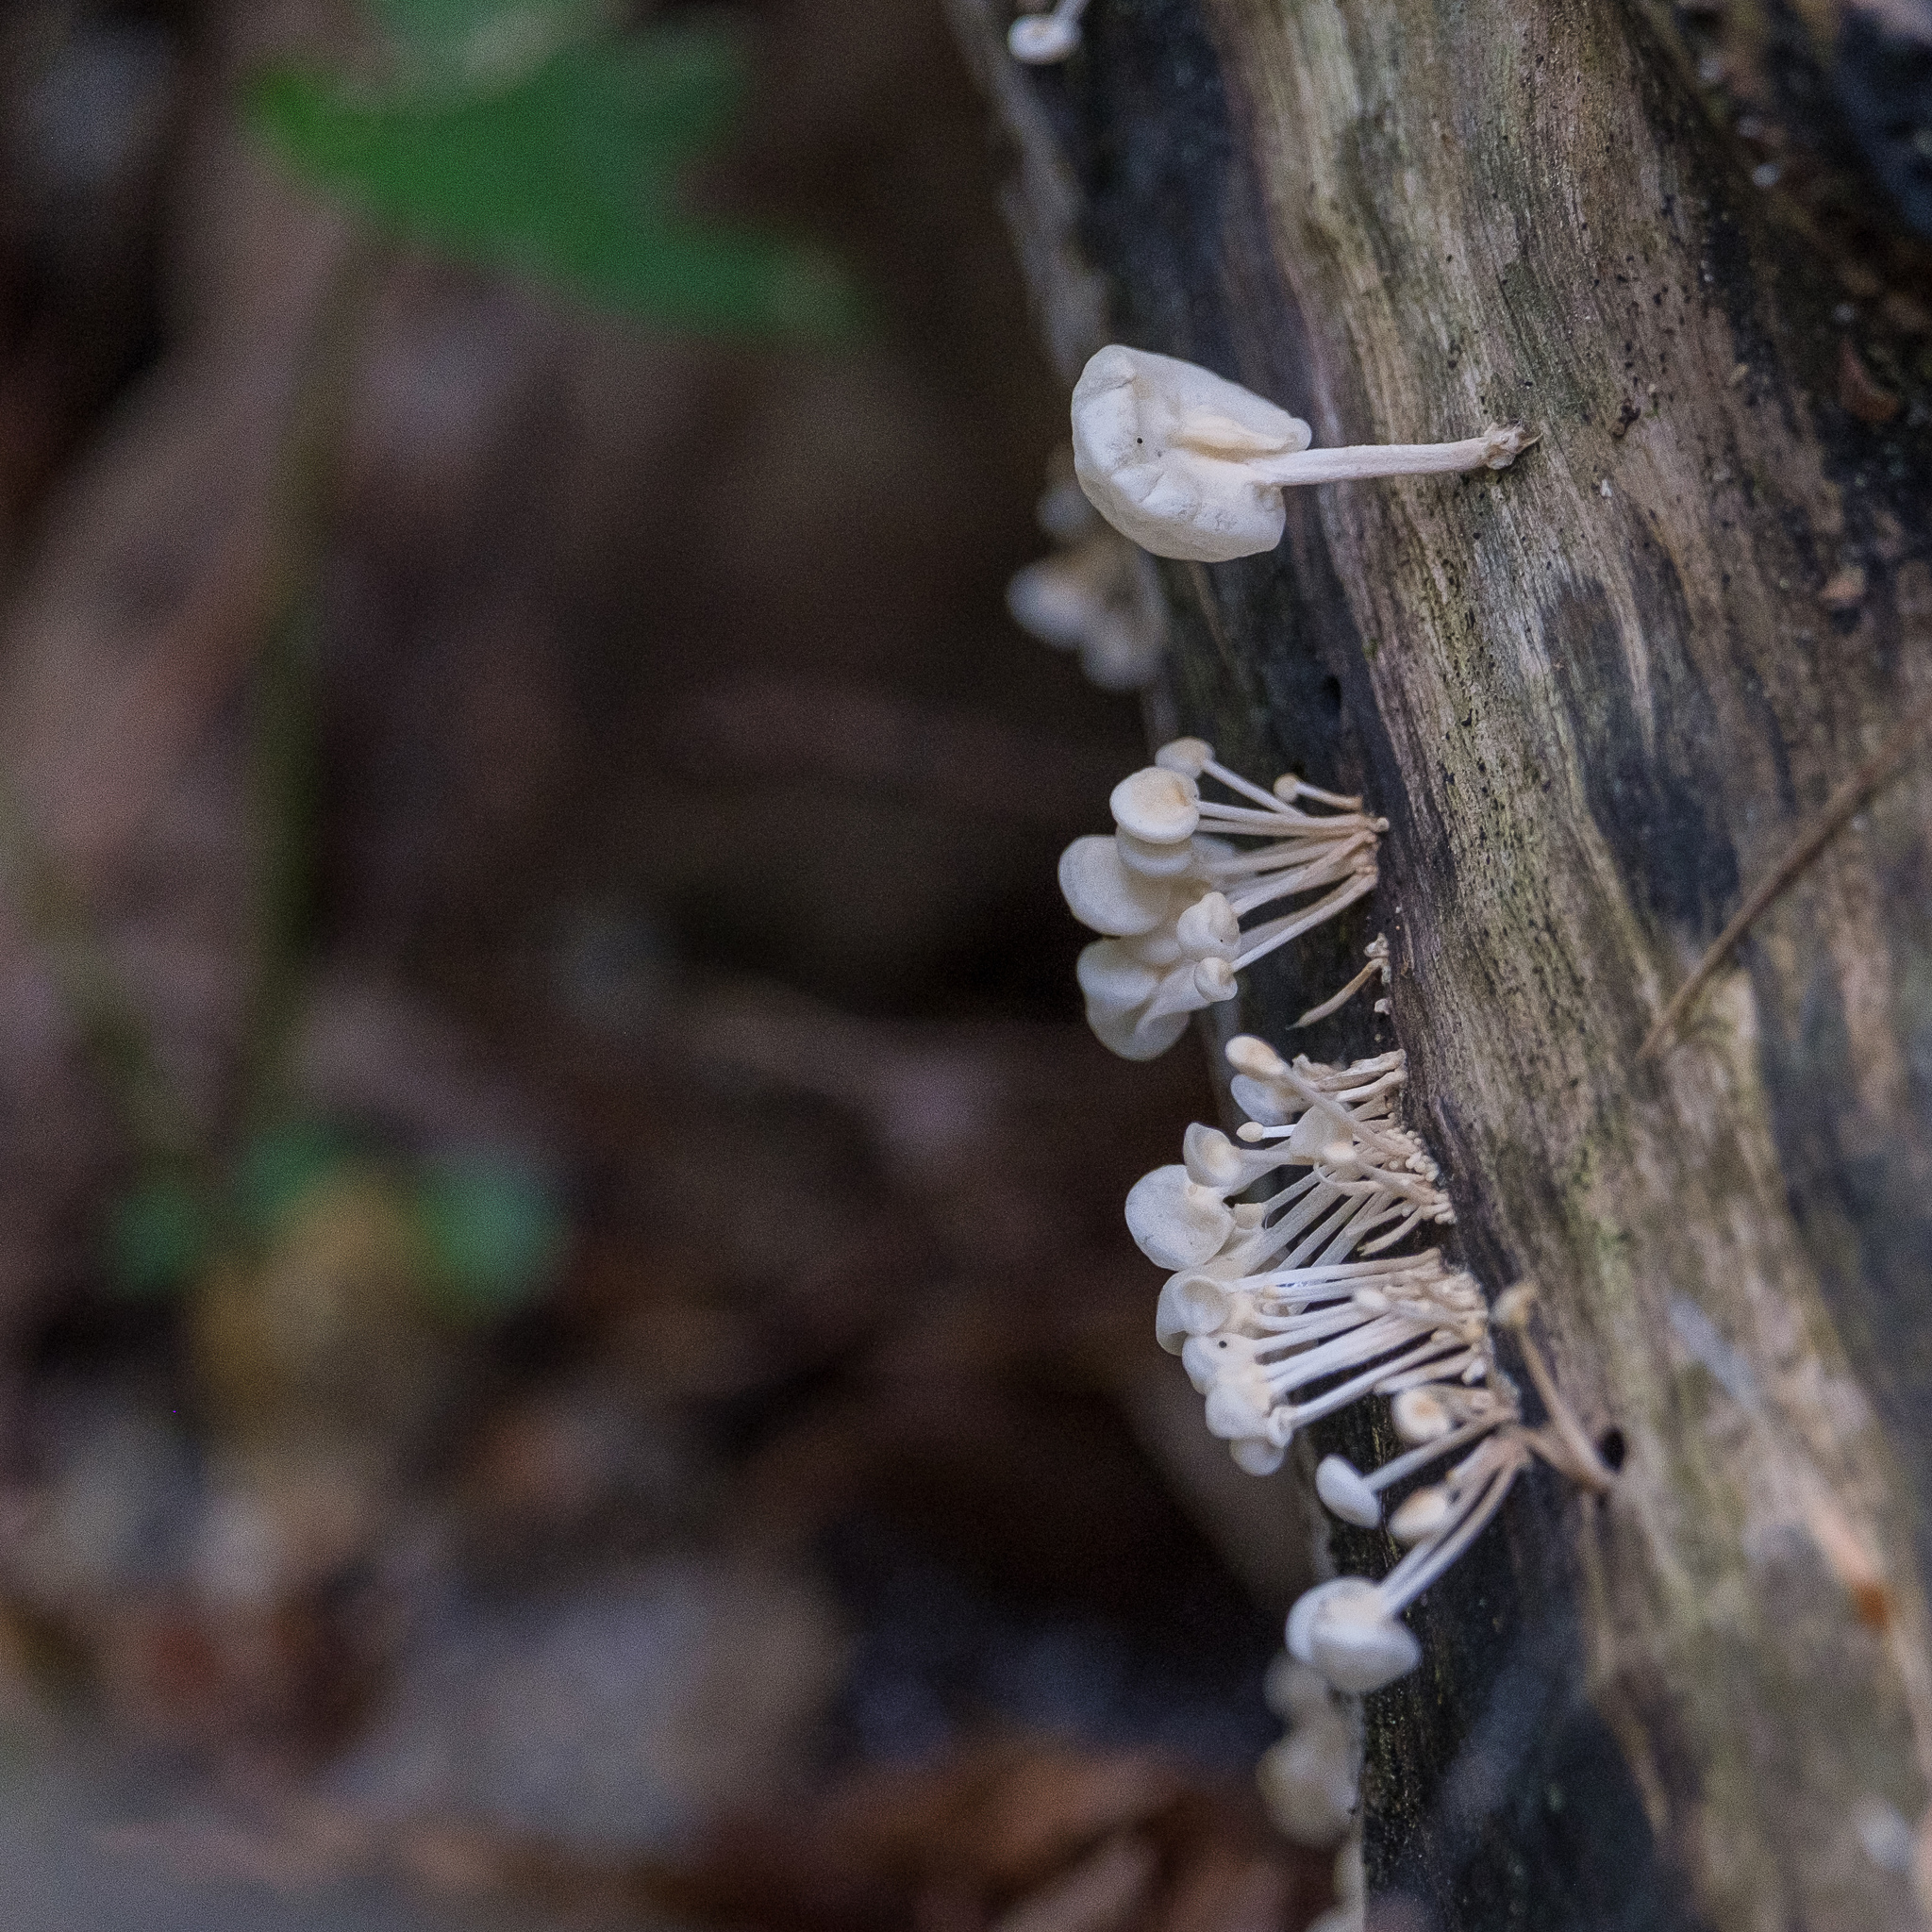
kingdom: Fungi
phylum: Basidiomycota
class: Agaricomycetes
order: Agaricales
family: Physalacriaceae
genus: Physalacria
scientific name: Physalacria inflata
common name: Bladder stalks
